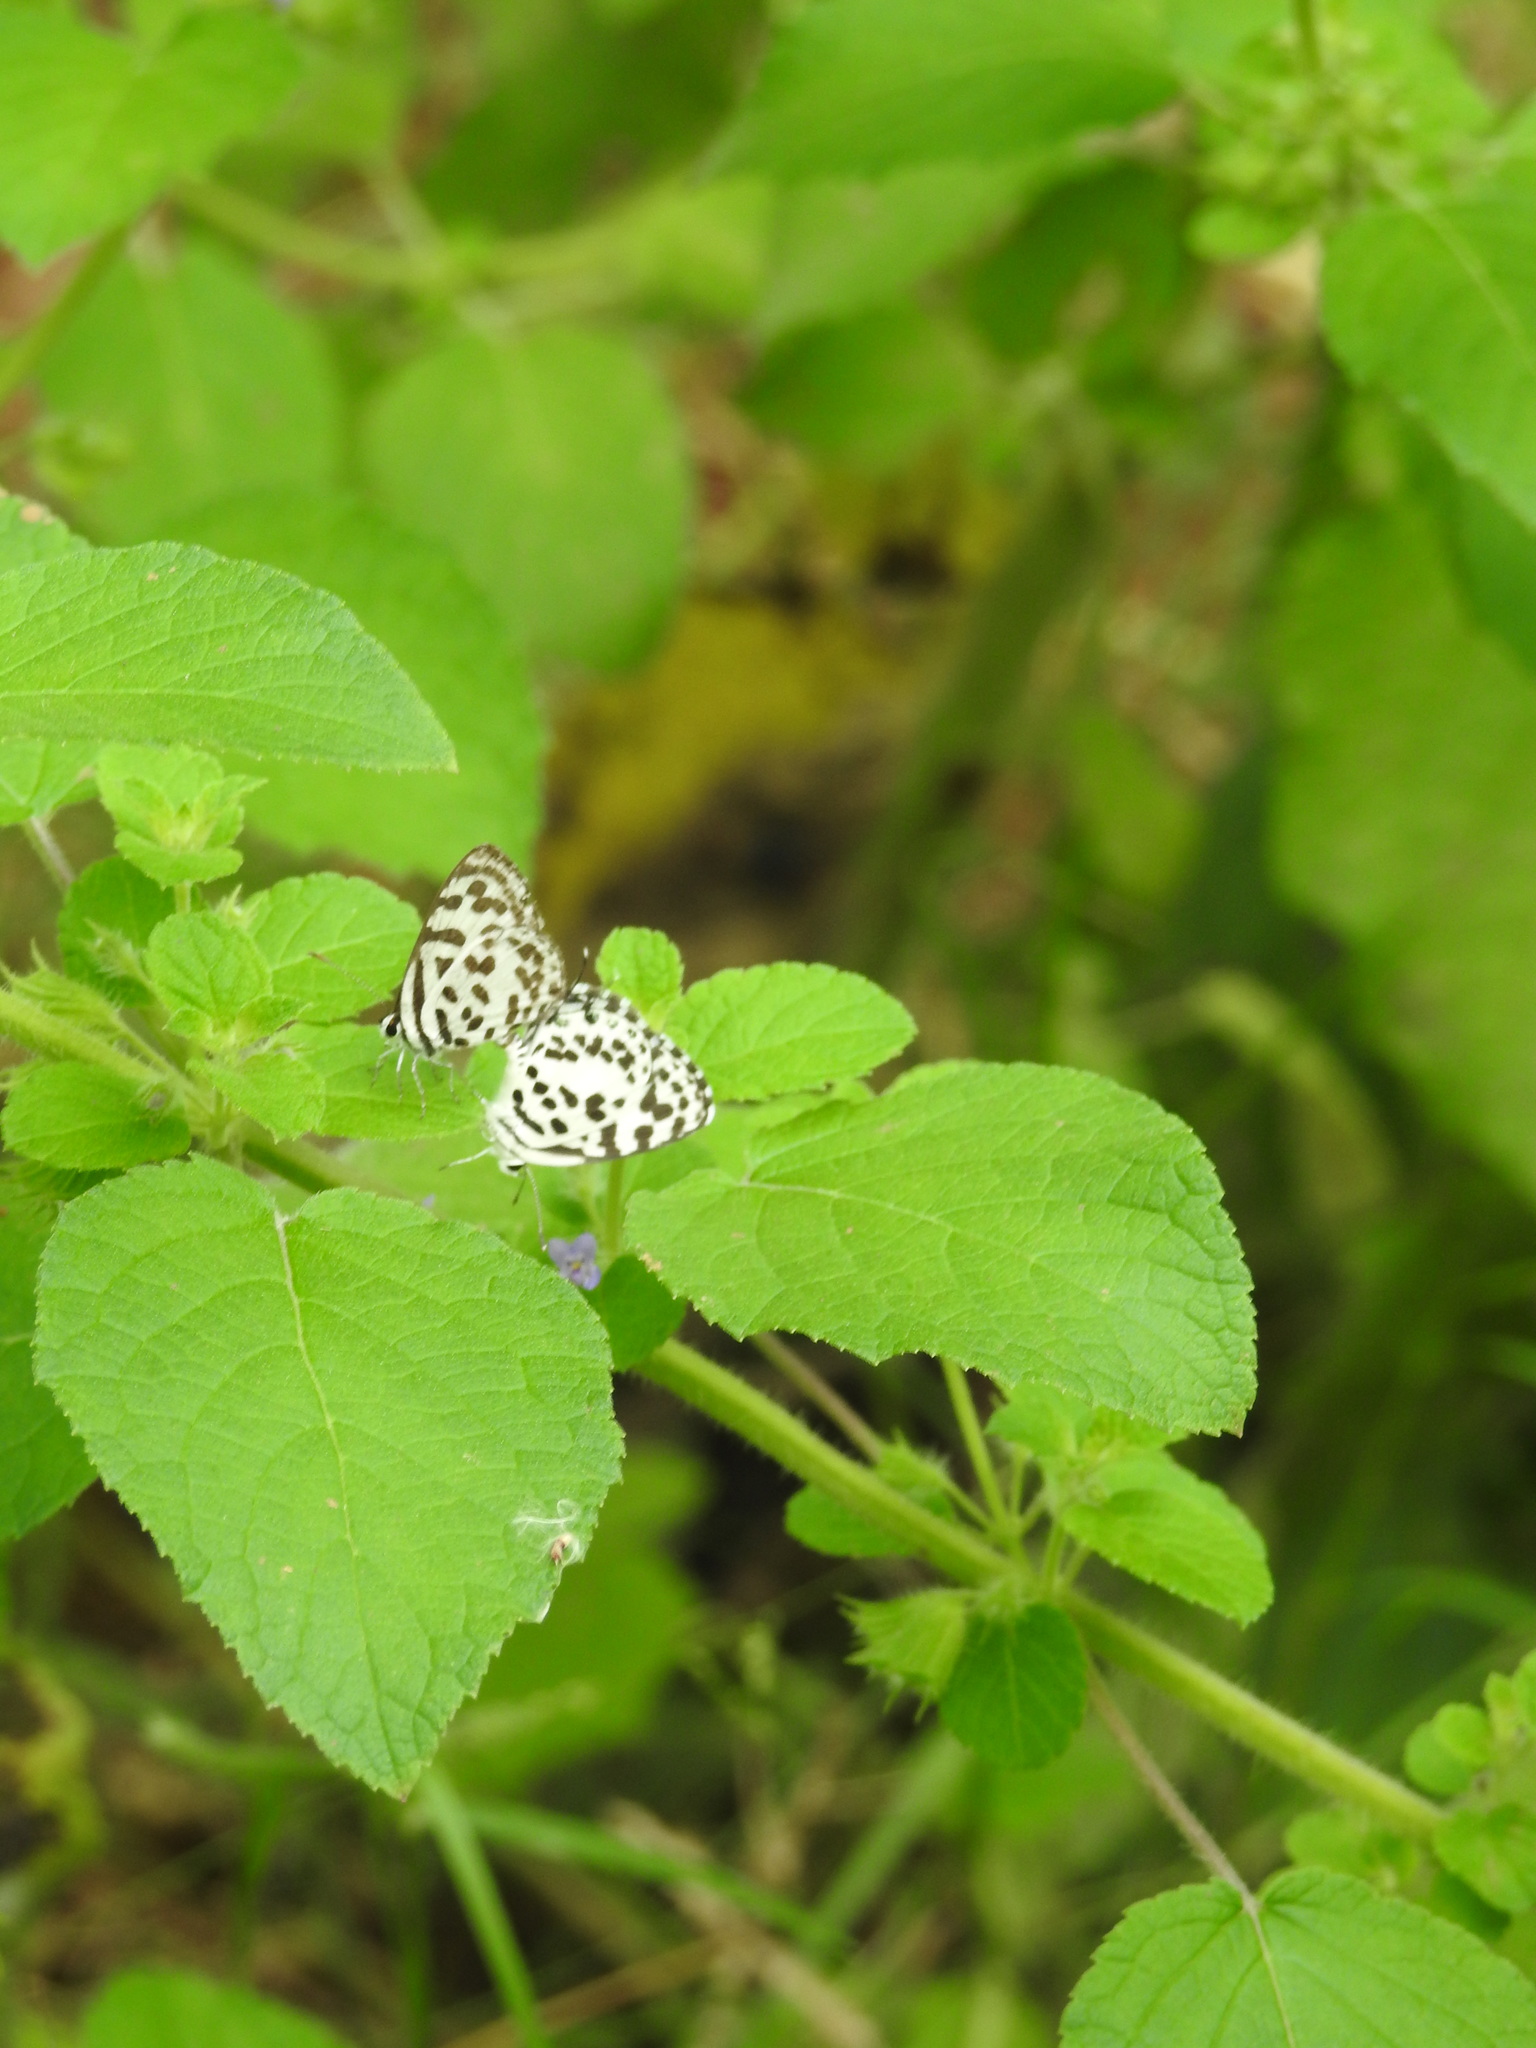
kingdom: Animalia
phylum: Arthropoda
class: Insecta
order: Lepidoptera
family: Lycaenidae
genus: Castalius
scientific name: Castalius rosimon
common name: Common pierrot
